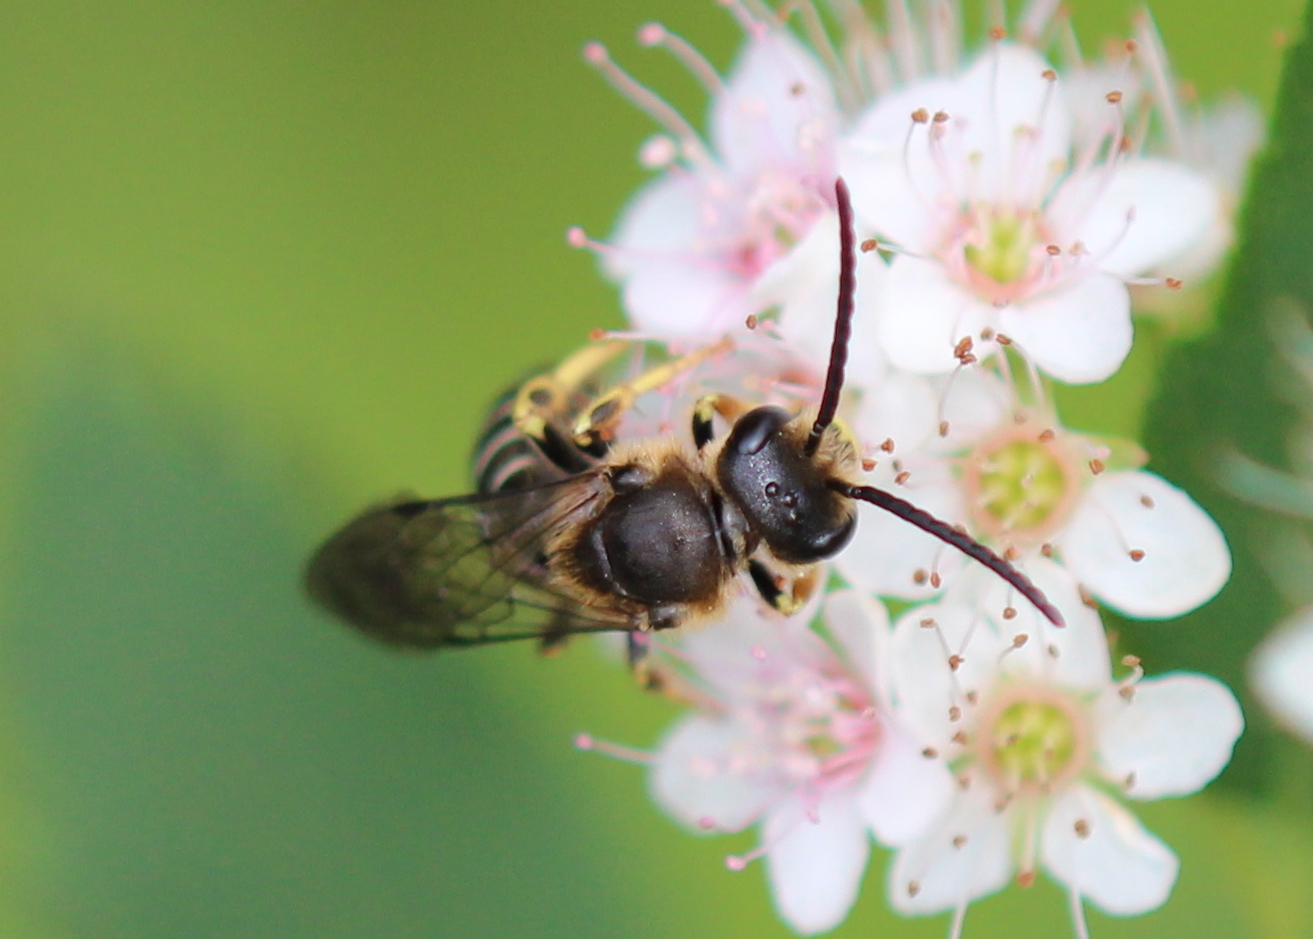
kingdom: Animalia
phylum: Arthropoda
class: Insecta
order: Hymenoptera
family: Halictidae
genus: Halictus
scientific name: Halictus rubicundus
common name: Orange-legged furrow bee
